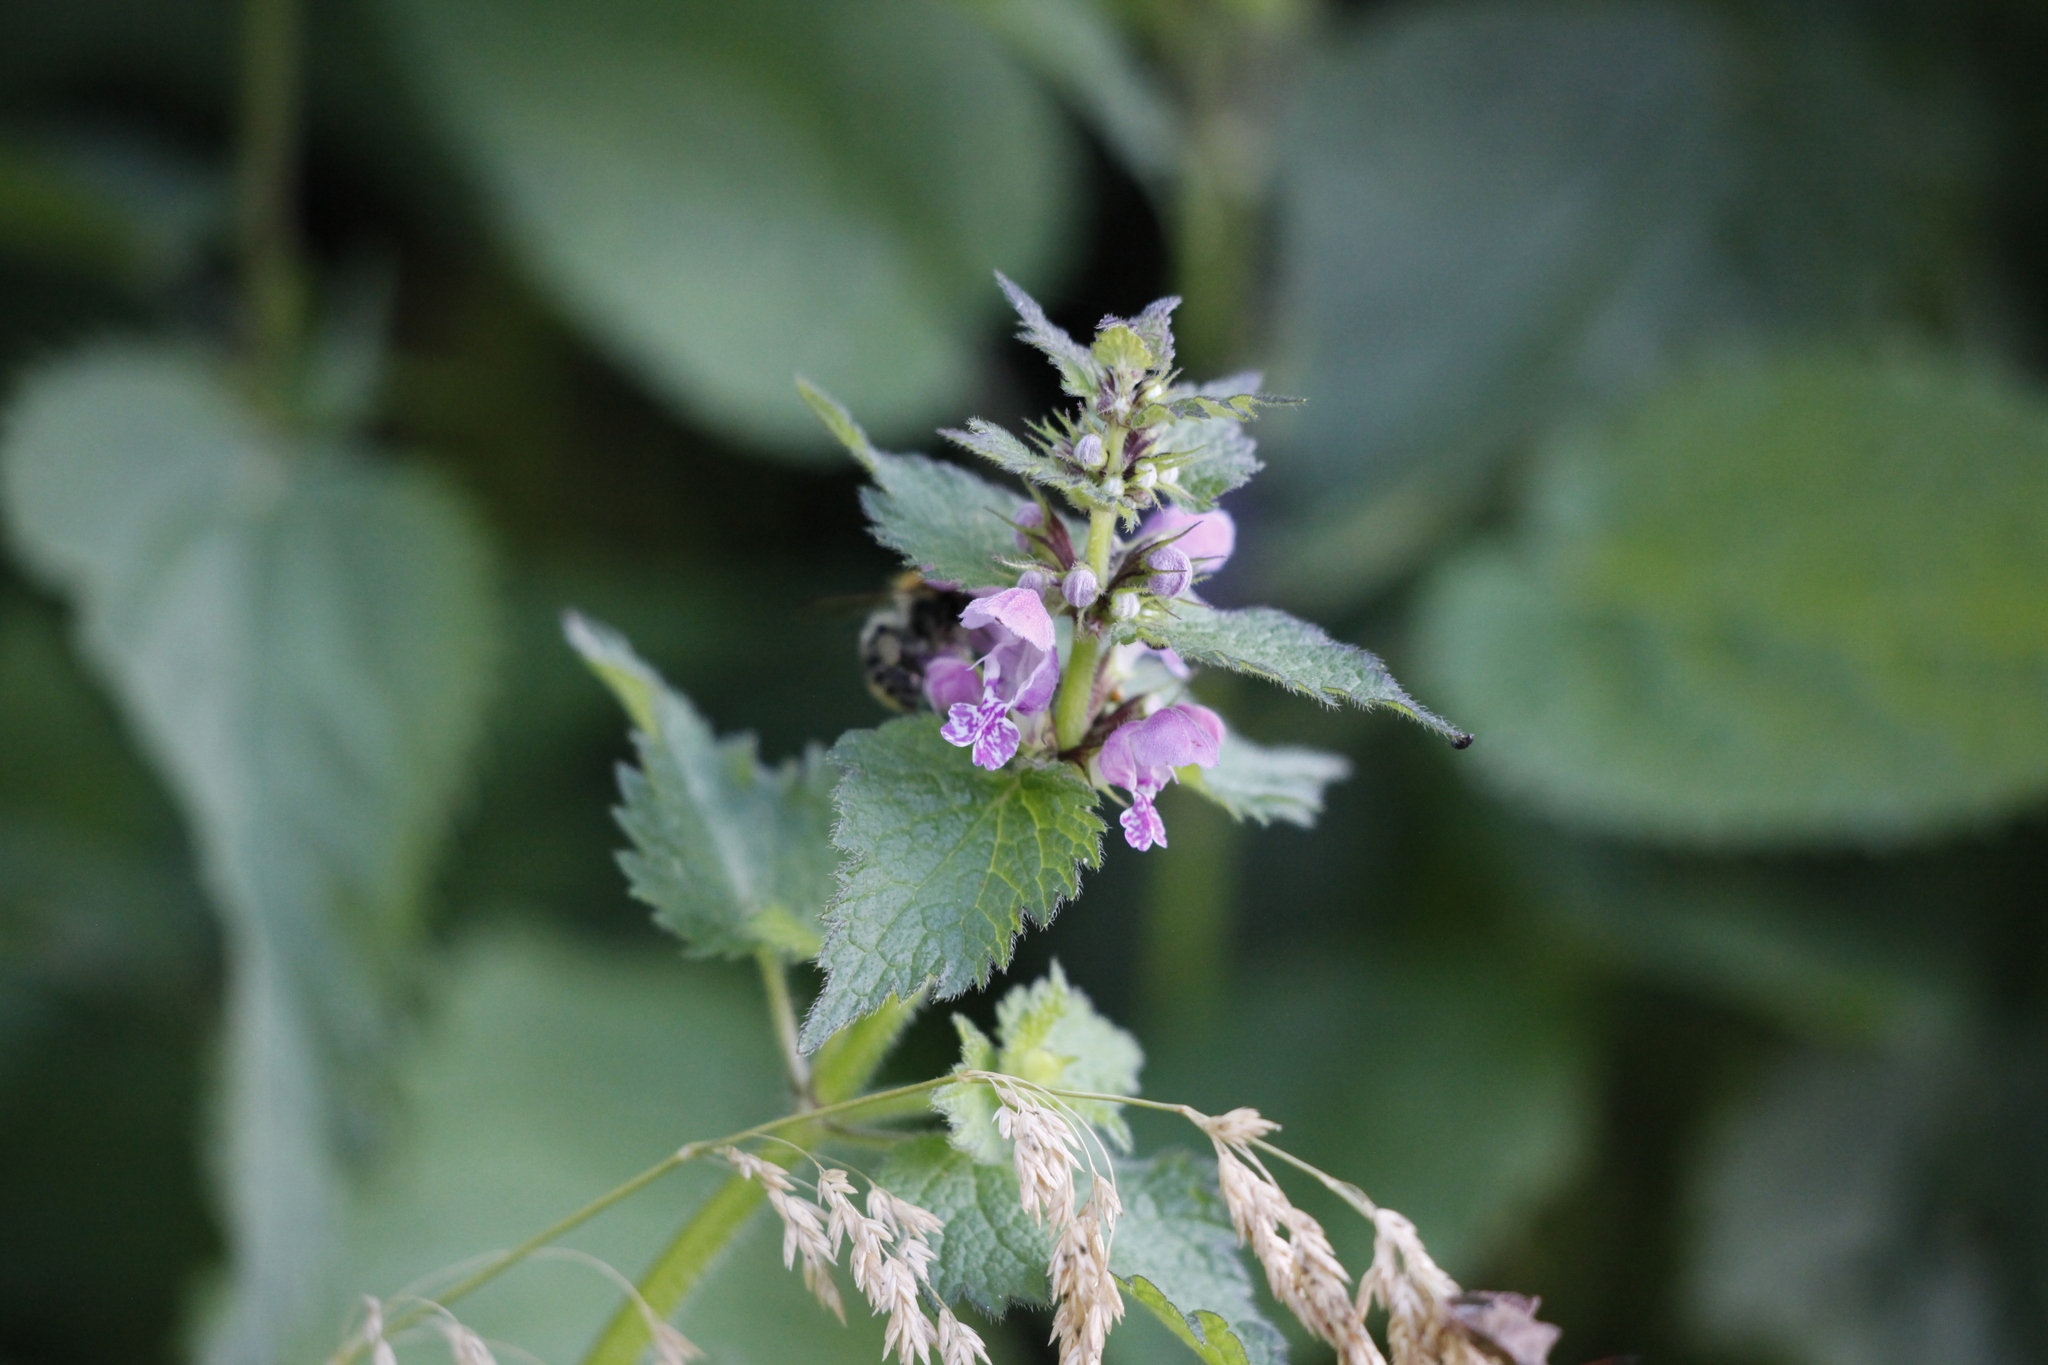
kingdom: Plantae
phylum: Tracheophyta
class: Magnoliopsida
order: Lamiales
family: Lamiaceae
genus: Lamium
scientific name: Lamium maculatum
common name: Spotted dead-nettle
